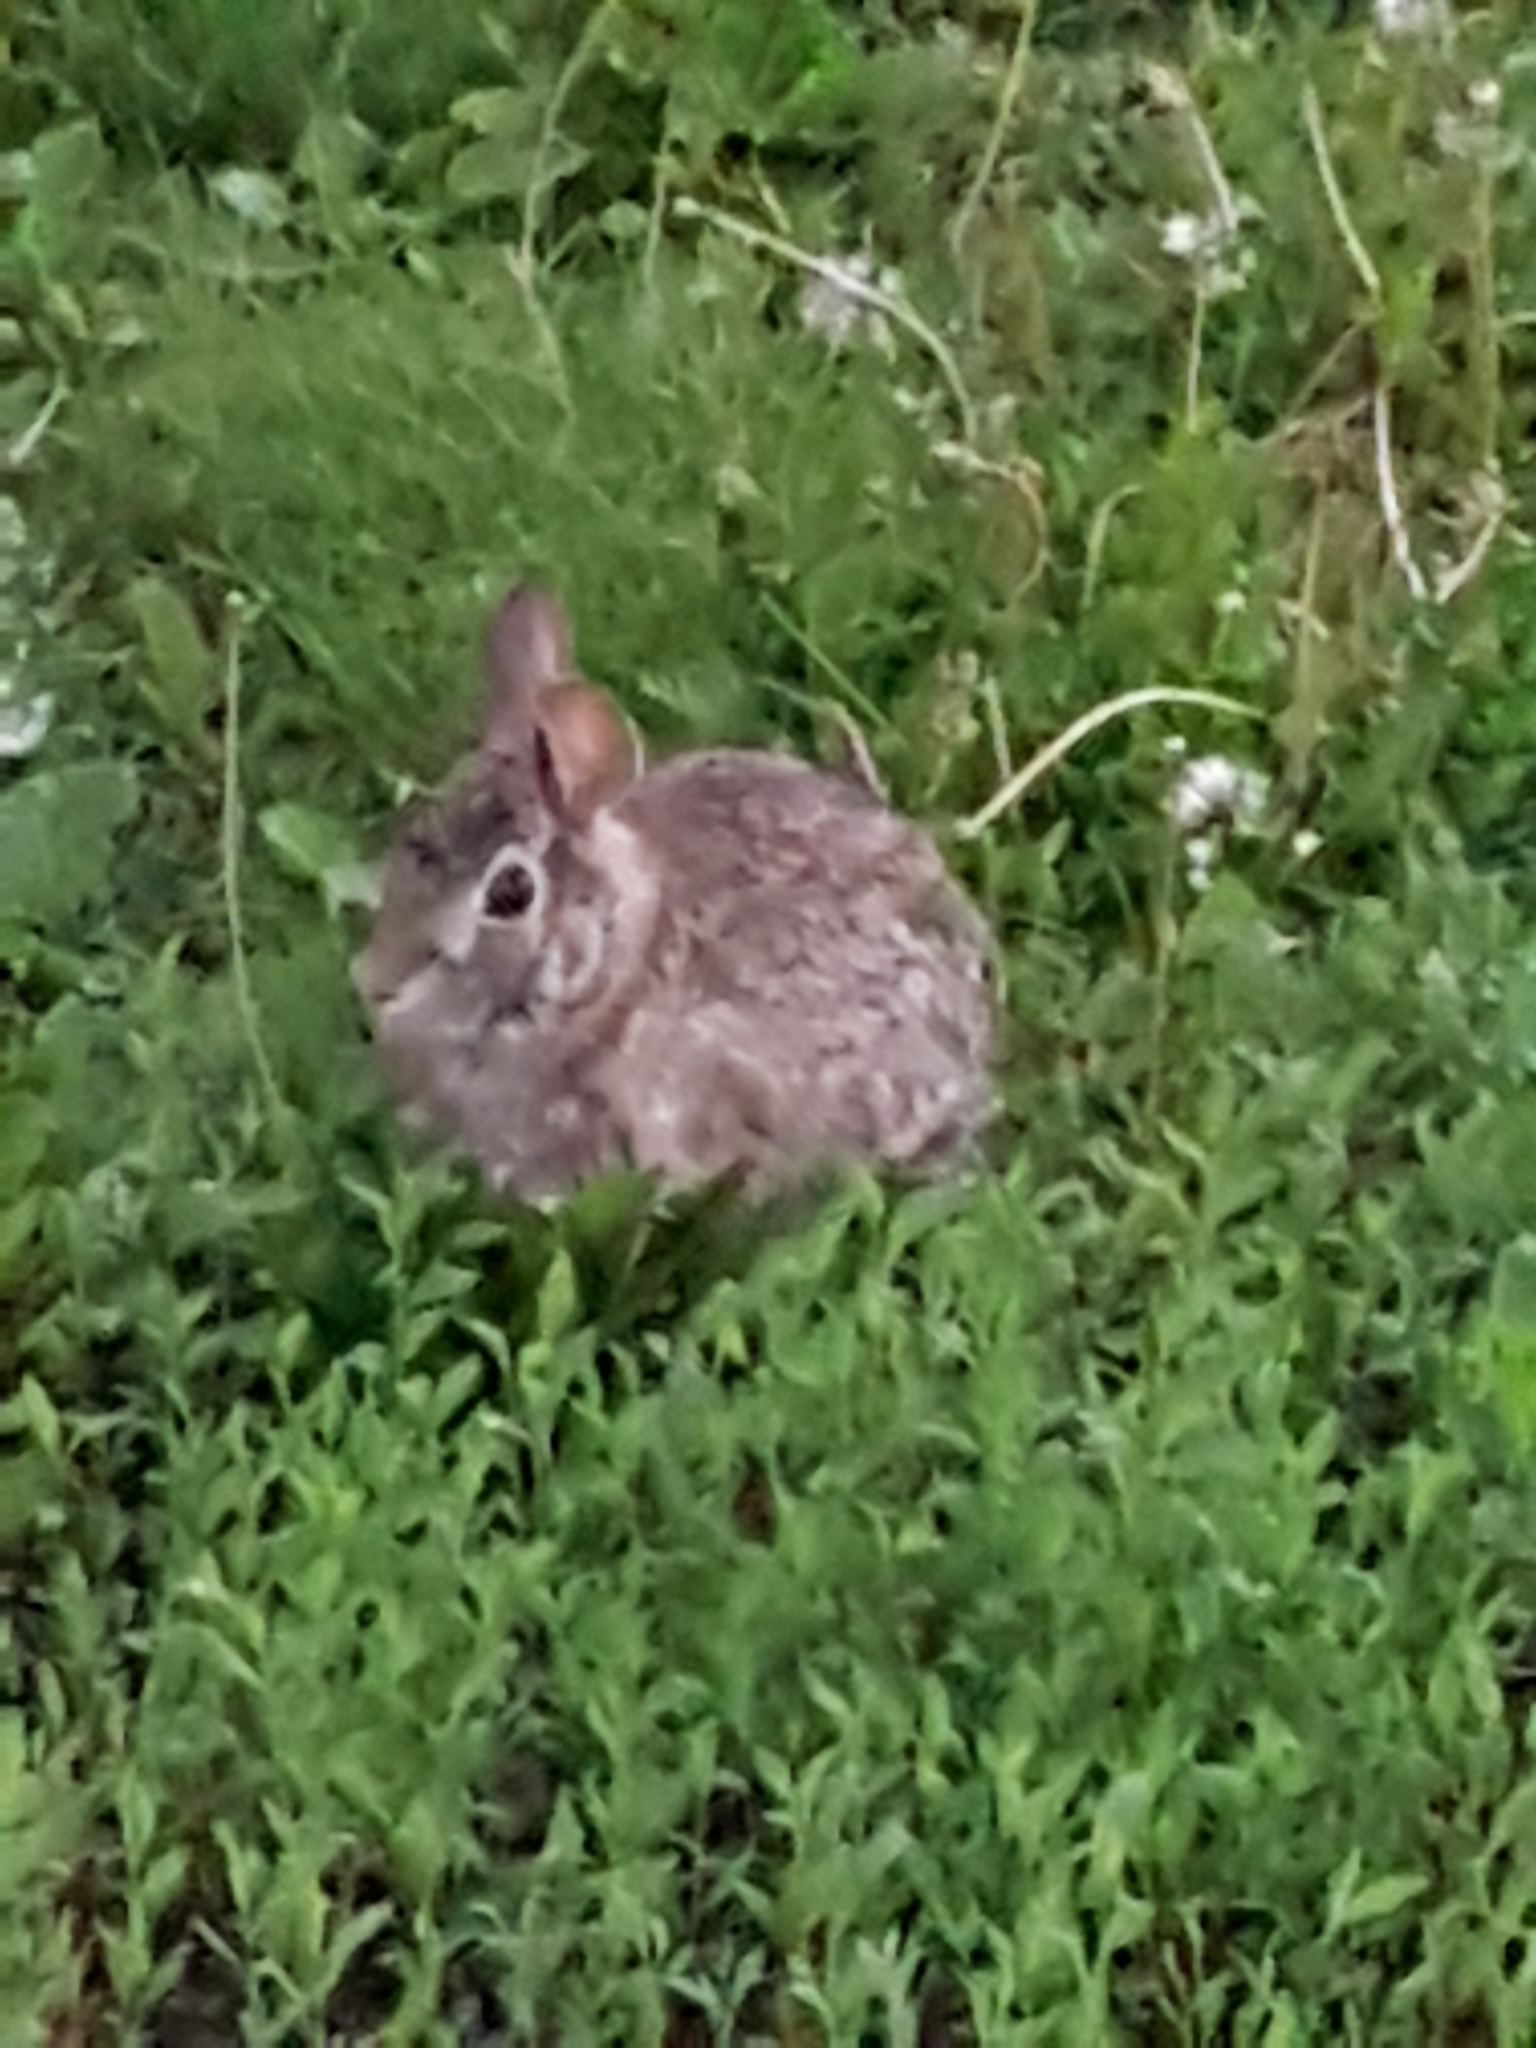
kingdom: Animalia
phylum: Chordata
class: Mammalia
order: Lagomorpha
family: Leporidae
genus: Sylvilagus
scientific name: Sylvilagus floridanus
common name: Eastern cottontail
